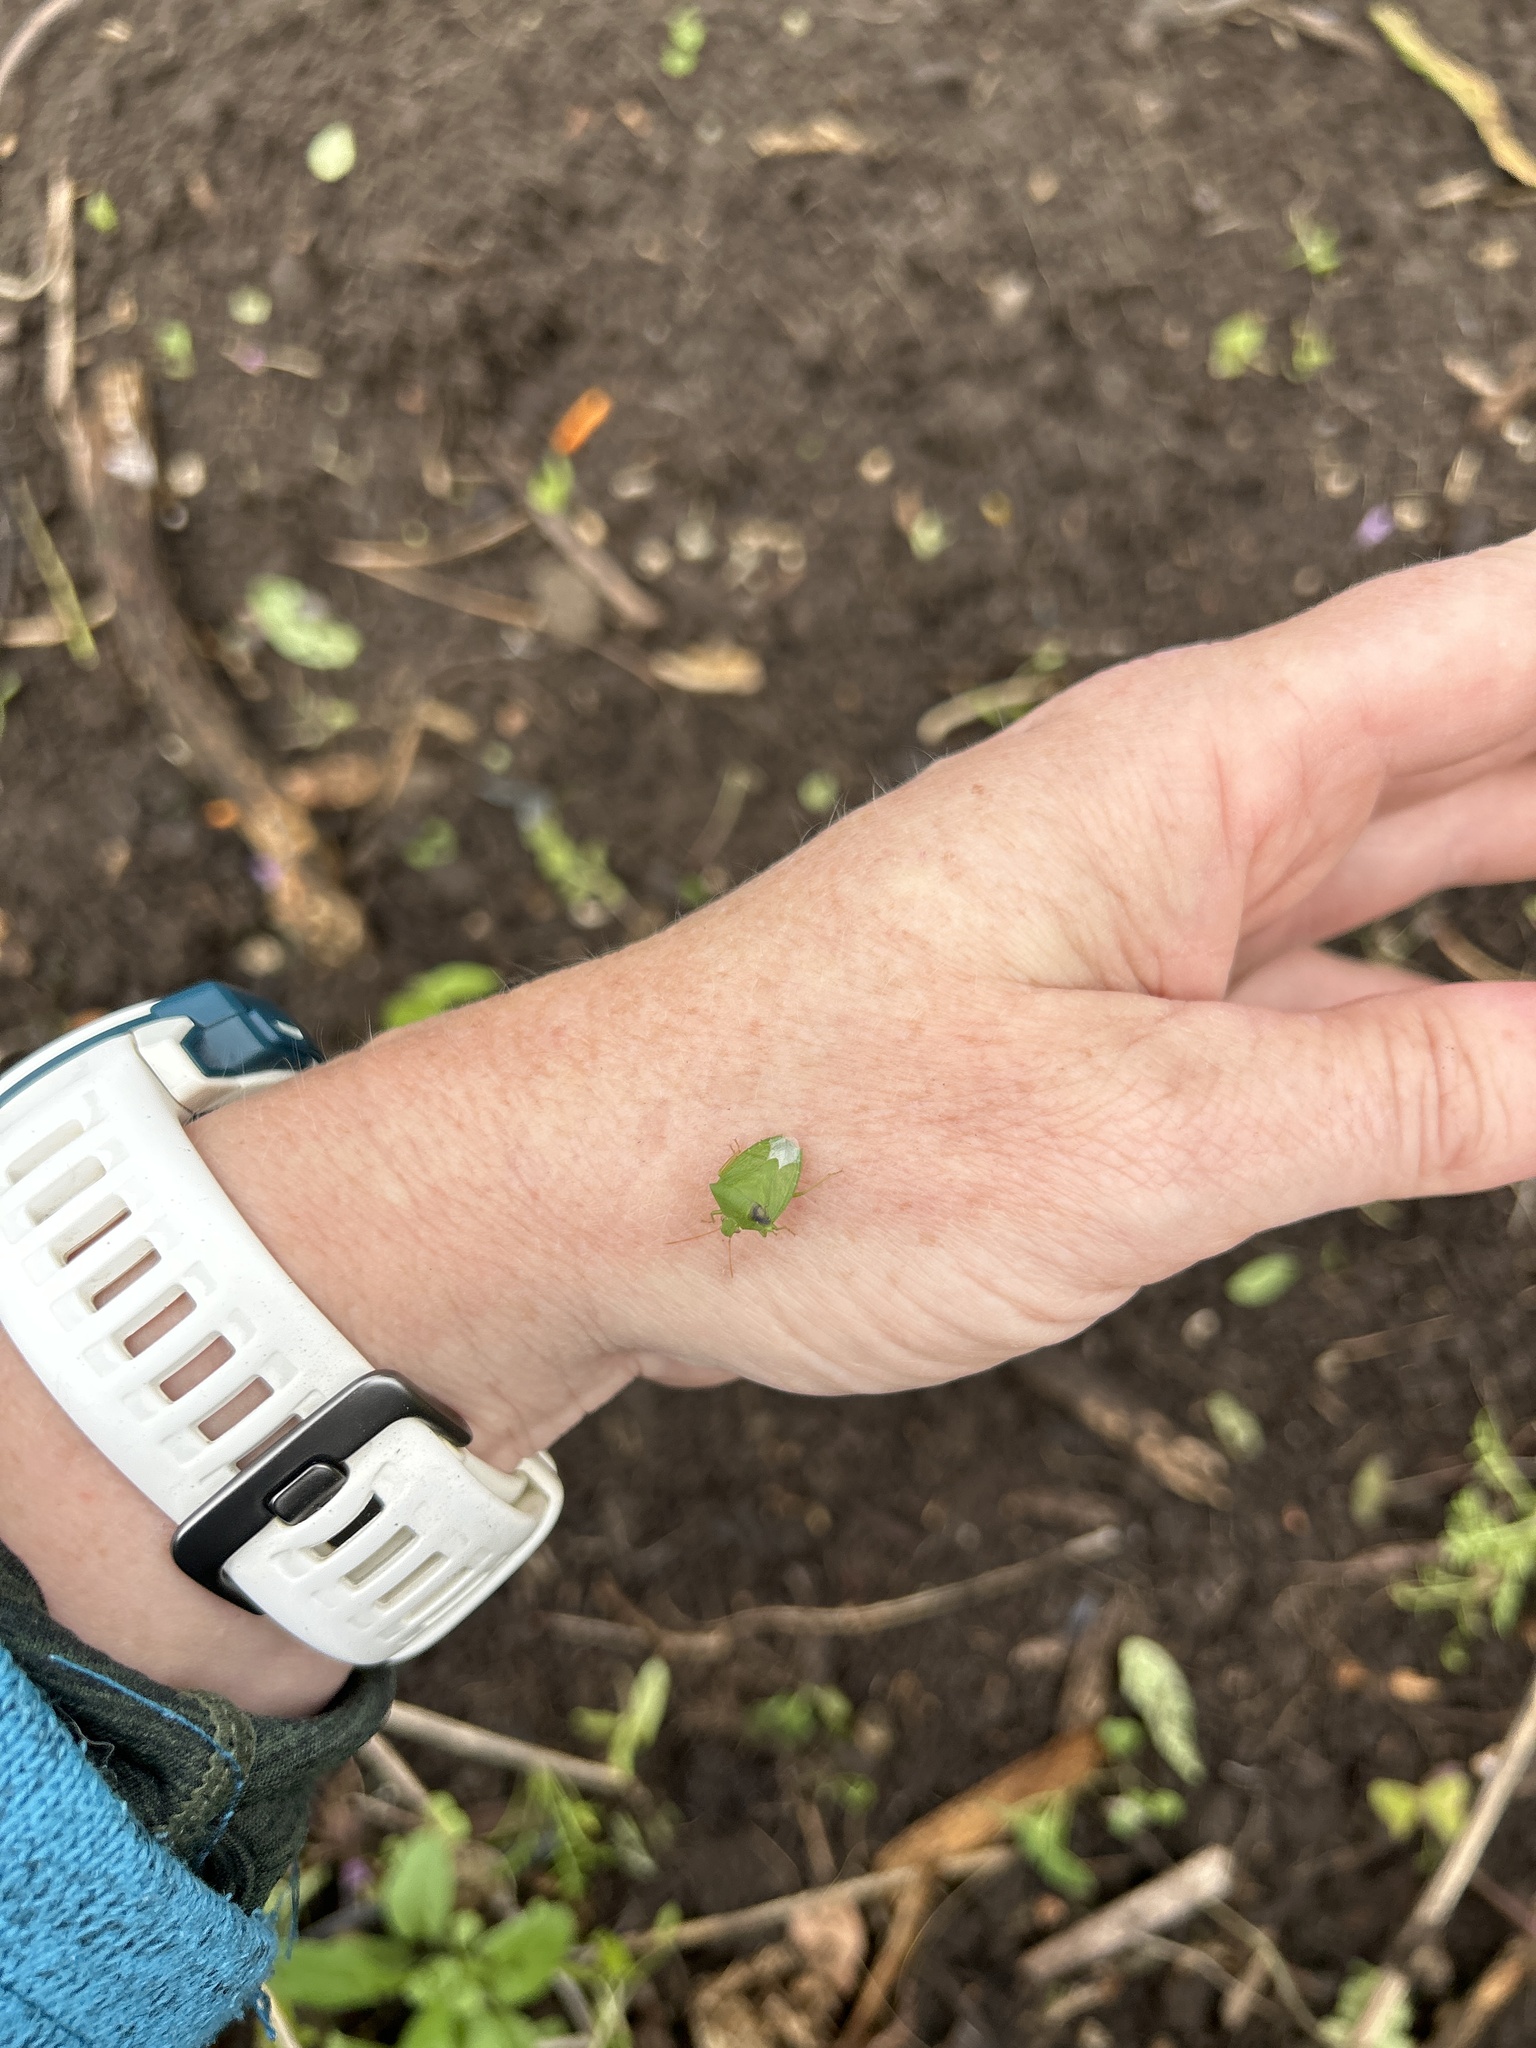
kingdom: Animalia
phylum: Arthropoda
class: Insecta
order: Hemiptera
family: Pentatomidae
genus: Cuspicona
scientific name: Cuspicona simplex
